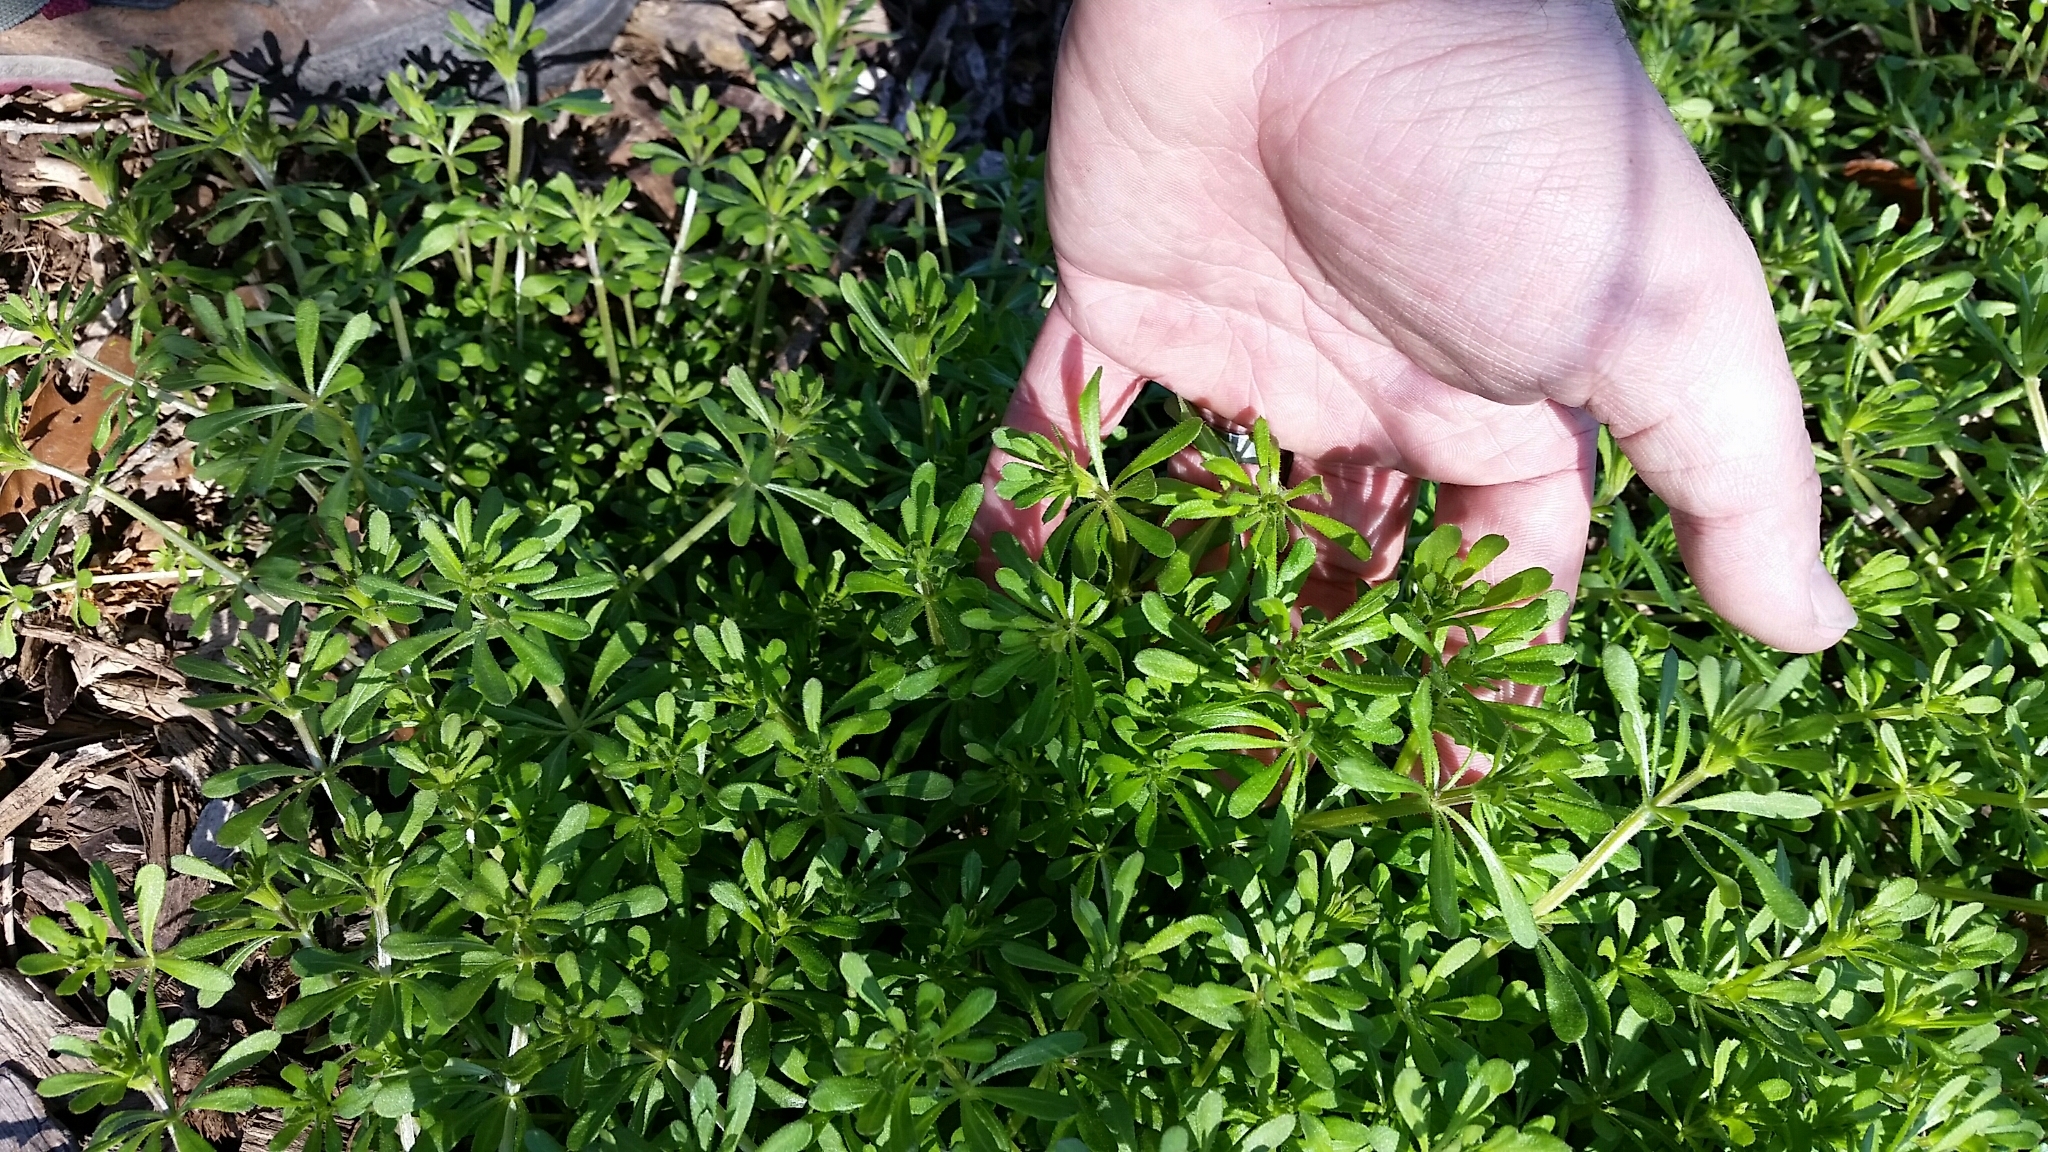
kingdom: Plantae
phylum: Tracheophyta
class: Magnoliopsida
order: Gentianales
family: Rubiaceae
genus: Galium
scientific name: Galium aparine
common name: Cleavers
